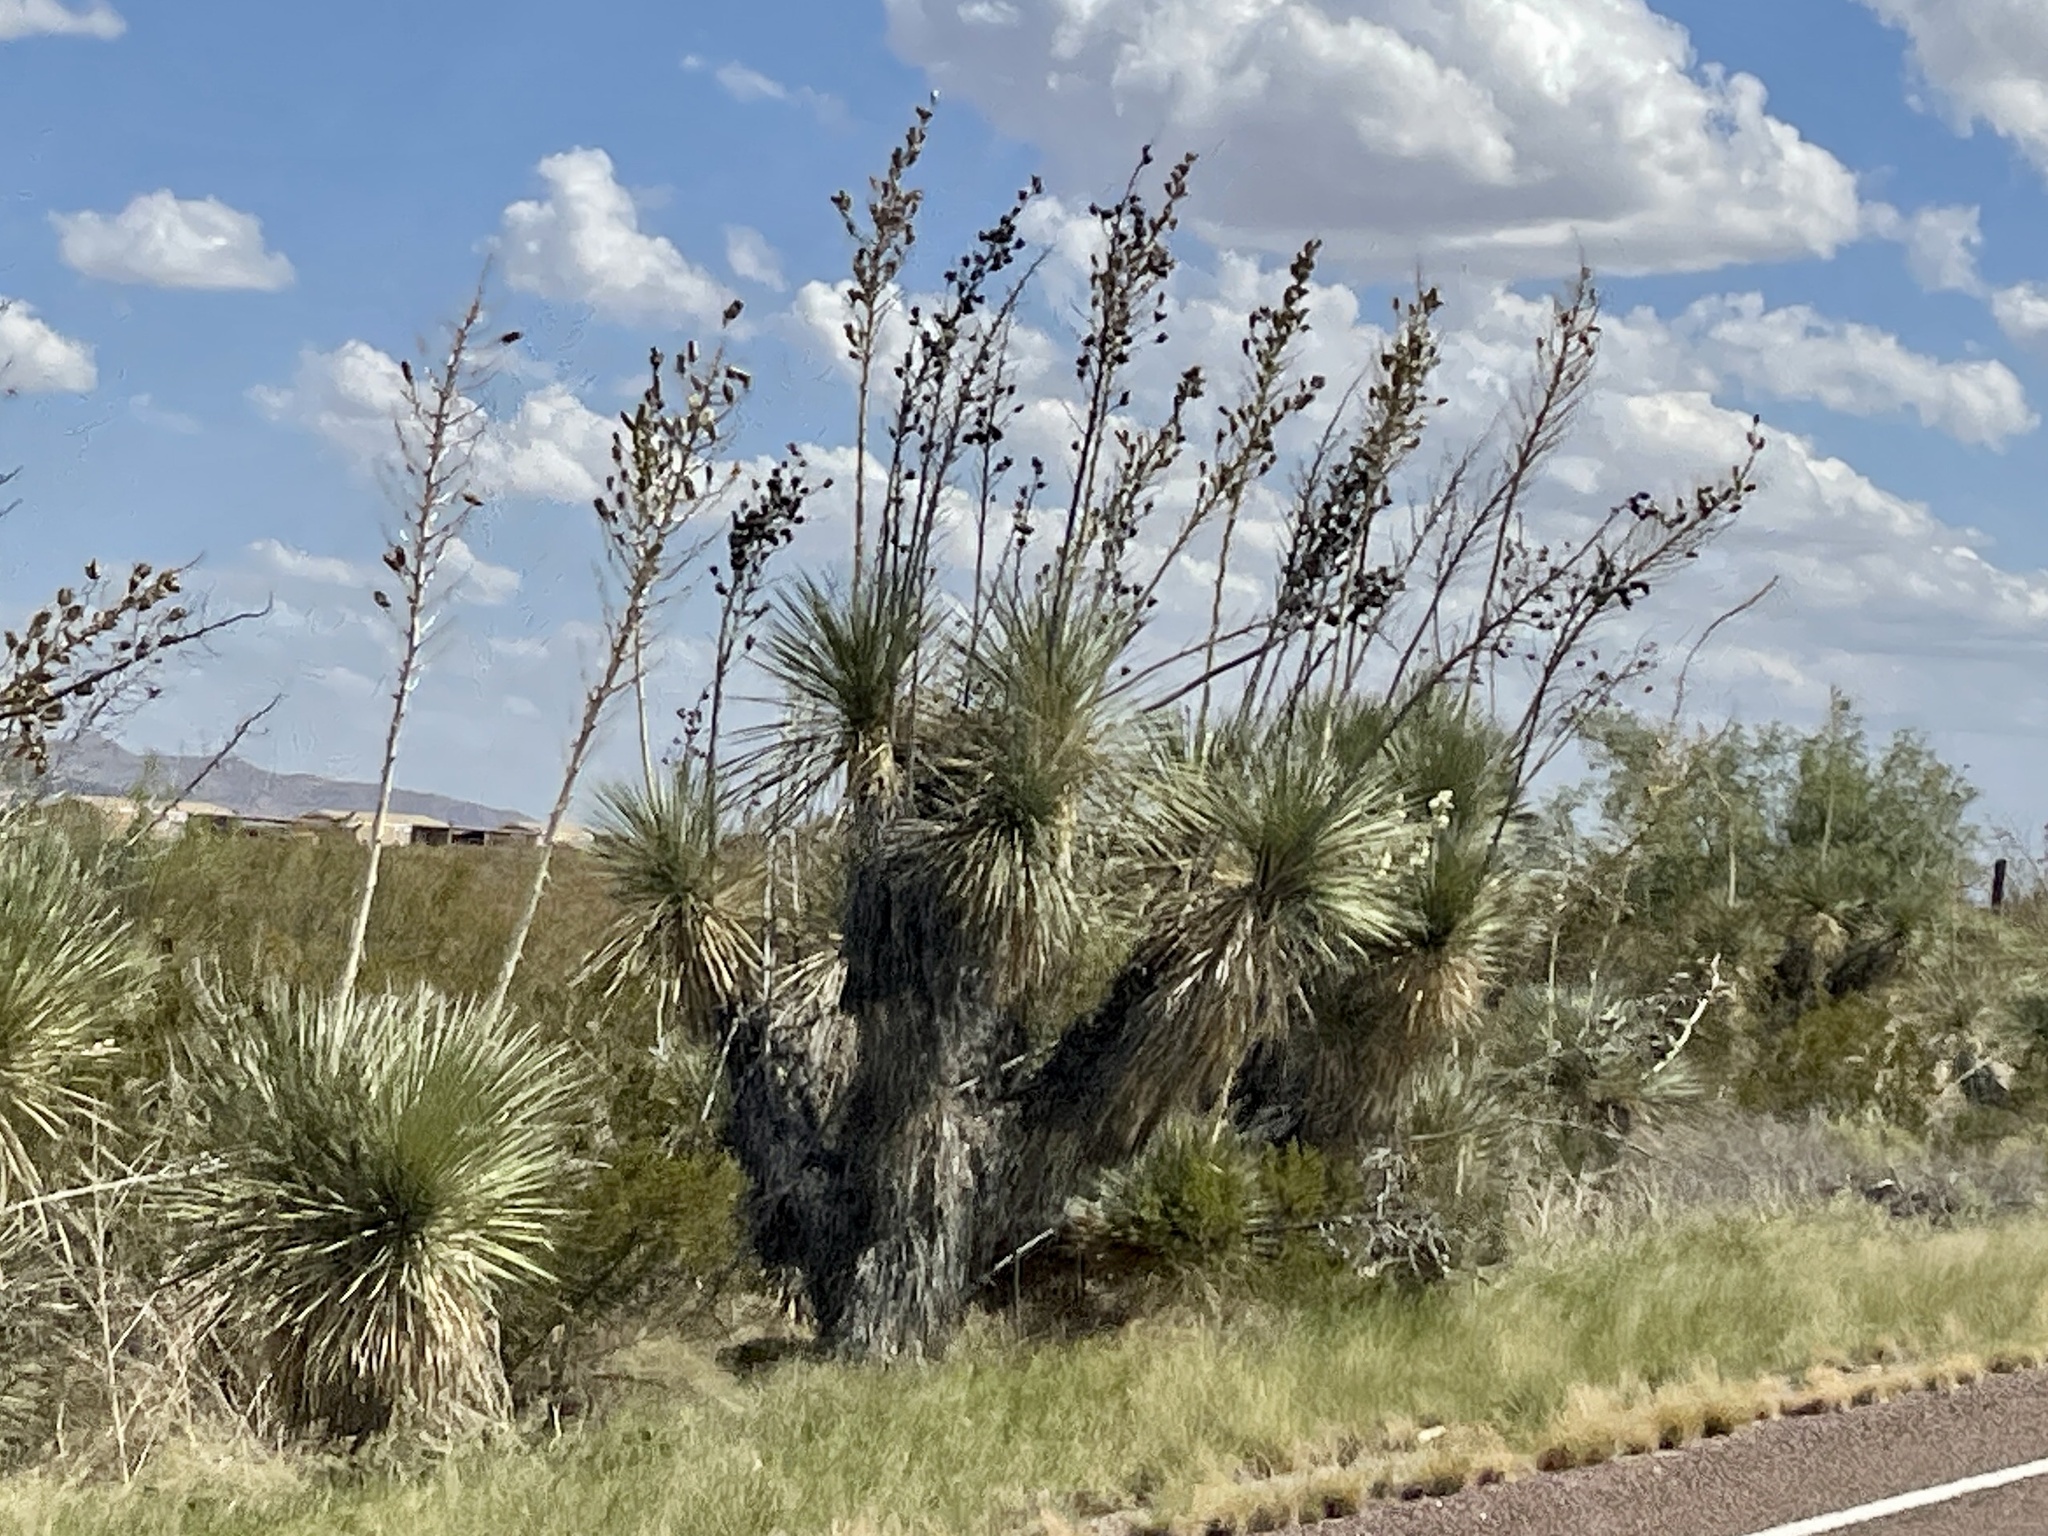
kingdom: Plantae
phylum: Tracheophyta
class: Liliopsida
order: Asparagales
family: Asparagaceae
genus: Yucca
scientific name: Yucca elata
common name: Palmella
